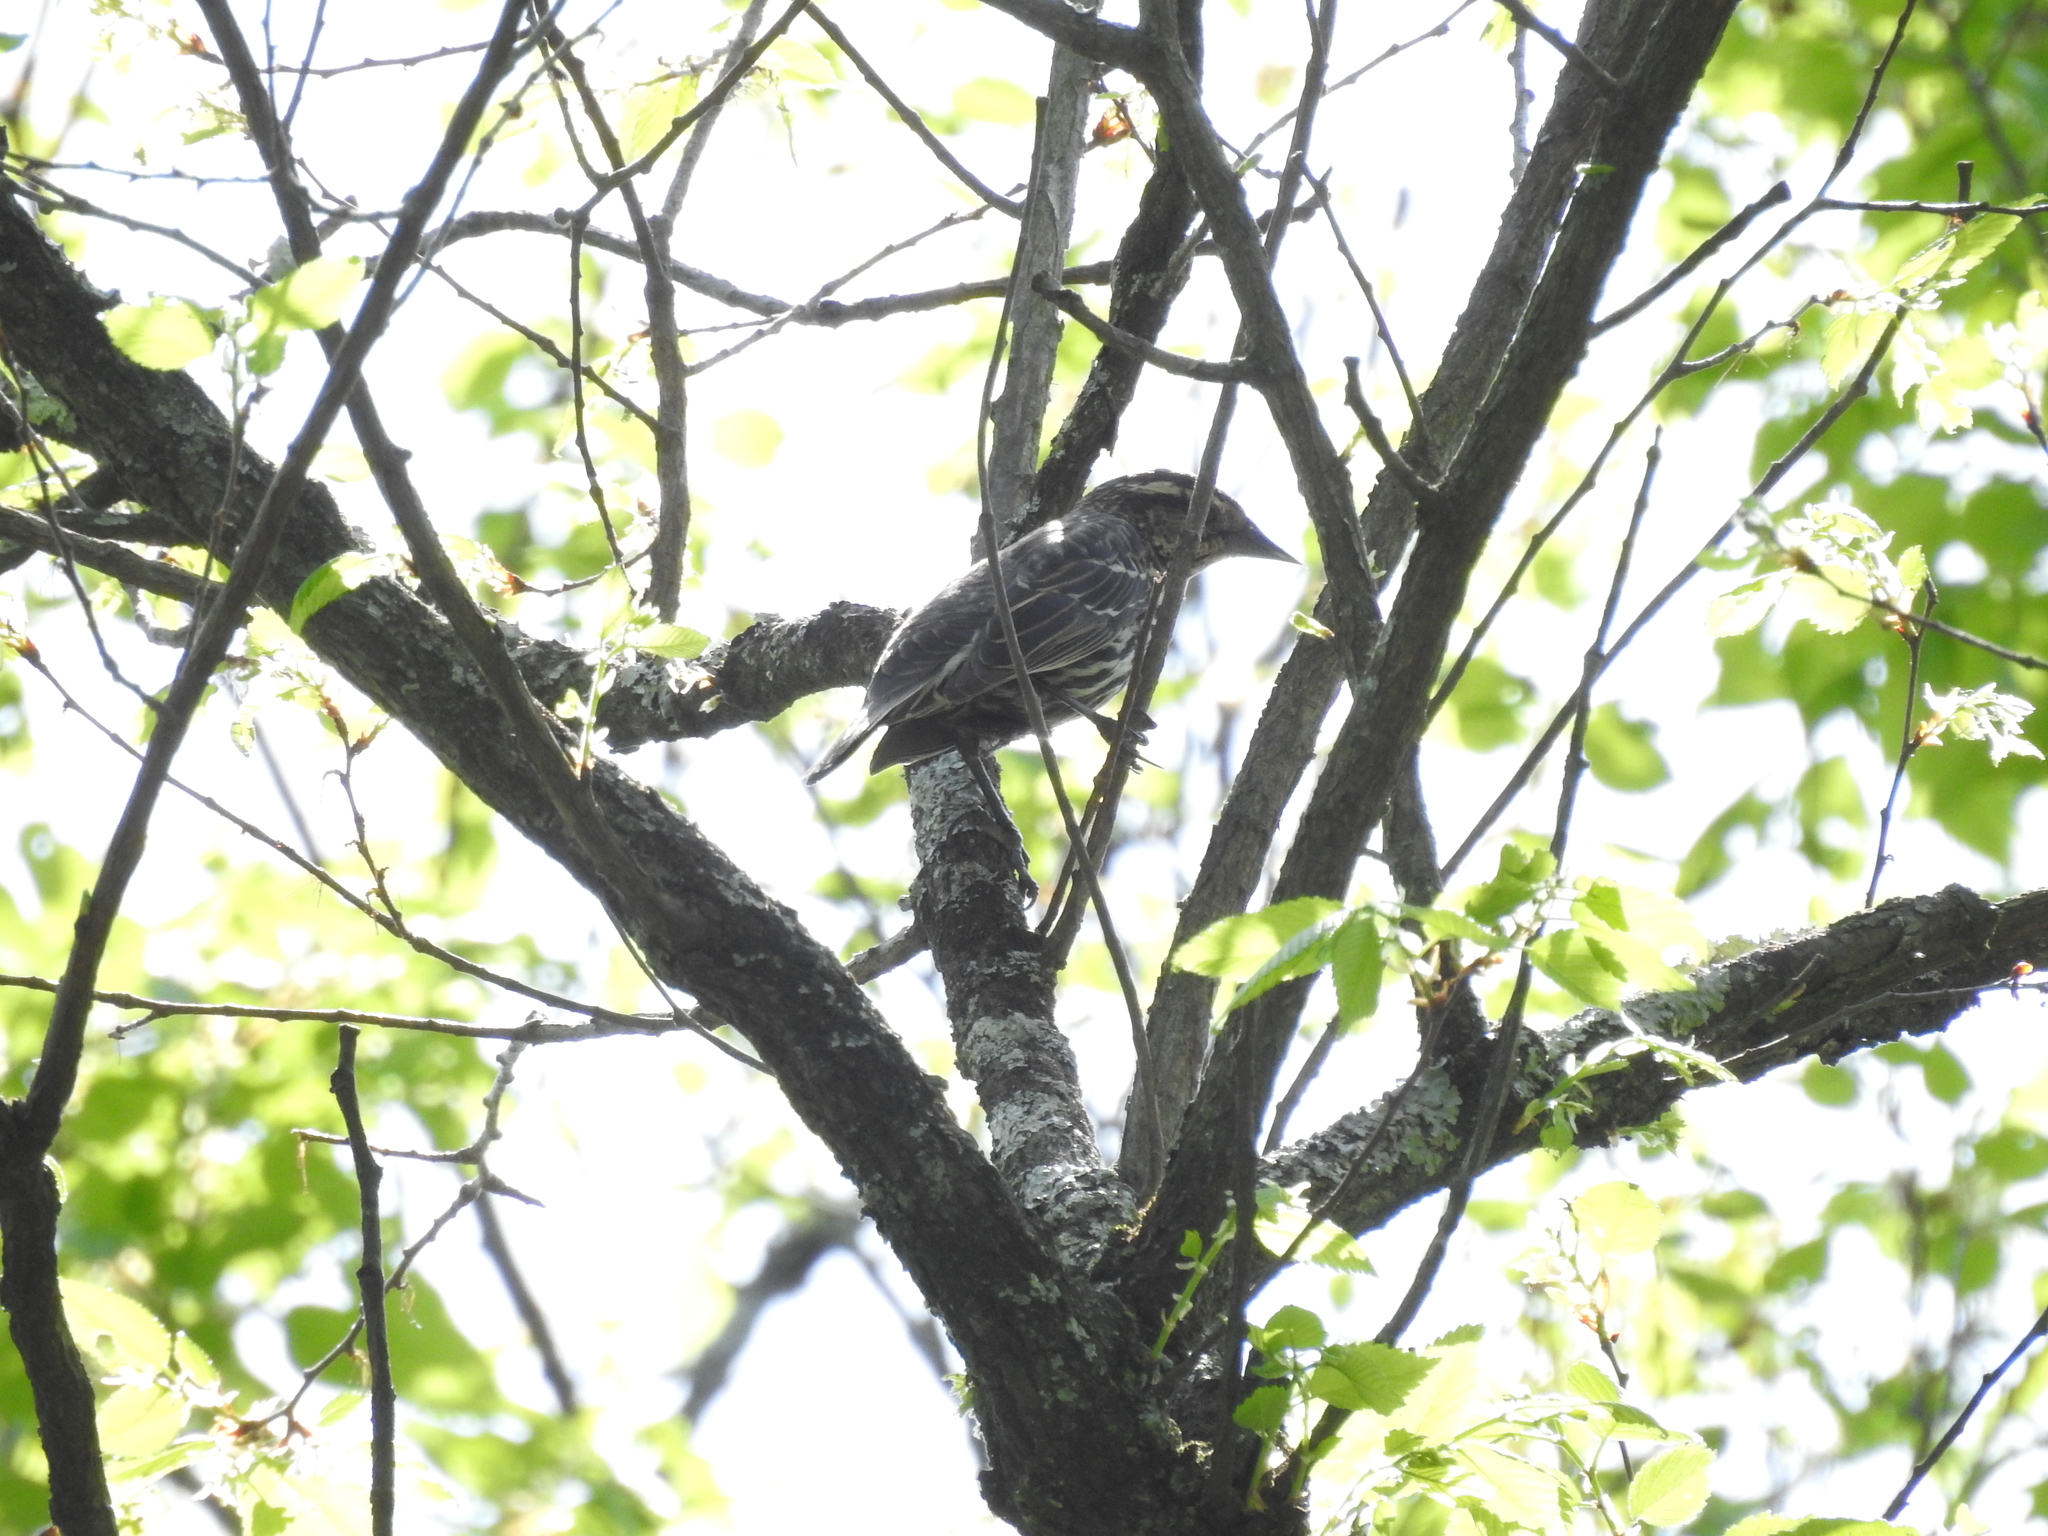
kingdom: Animalia
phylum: Chordata
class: Aves
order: Passeriformes
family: Icteridae
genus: Agelaius
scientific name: Agelaius phoeniceus
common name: Red-winged blackbird
